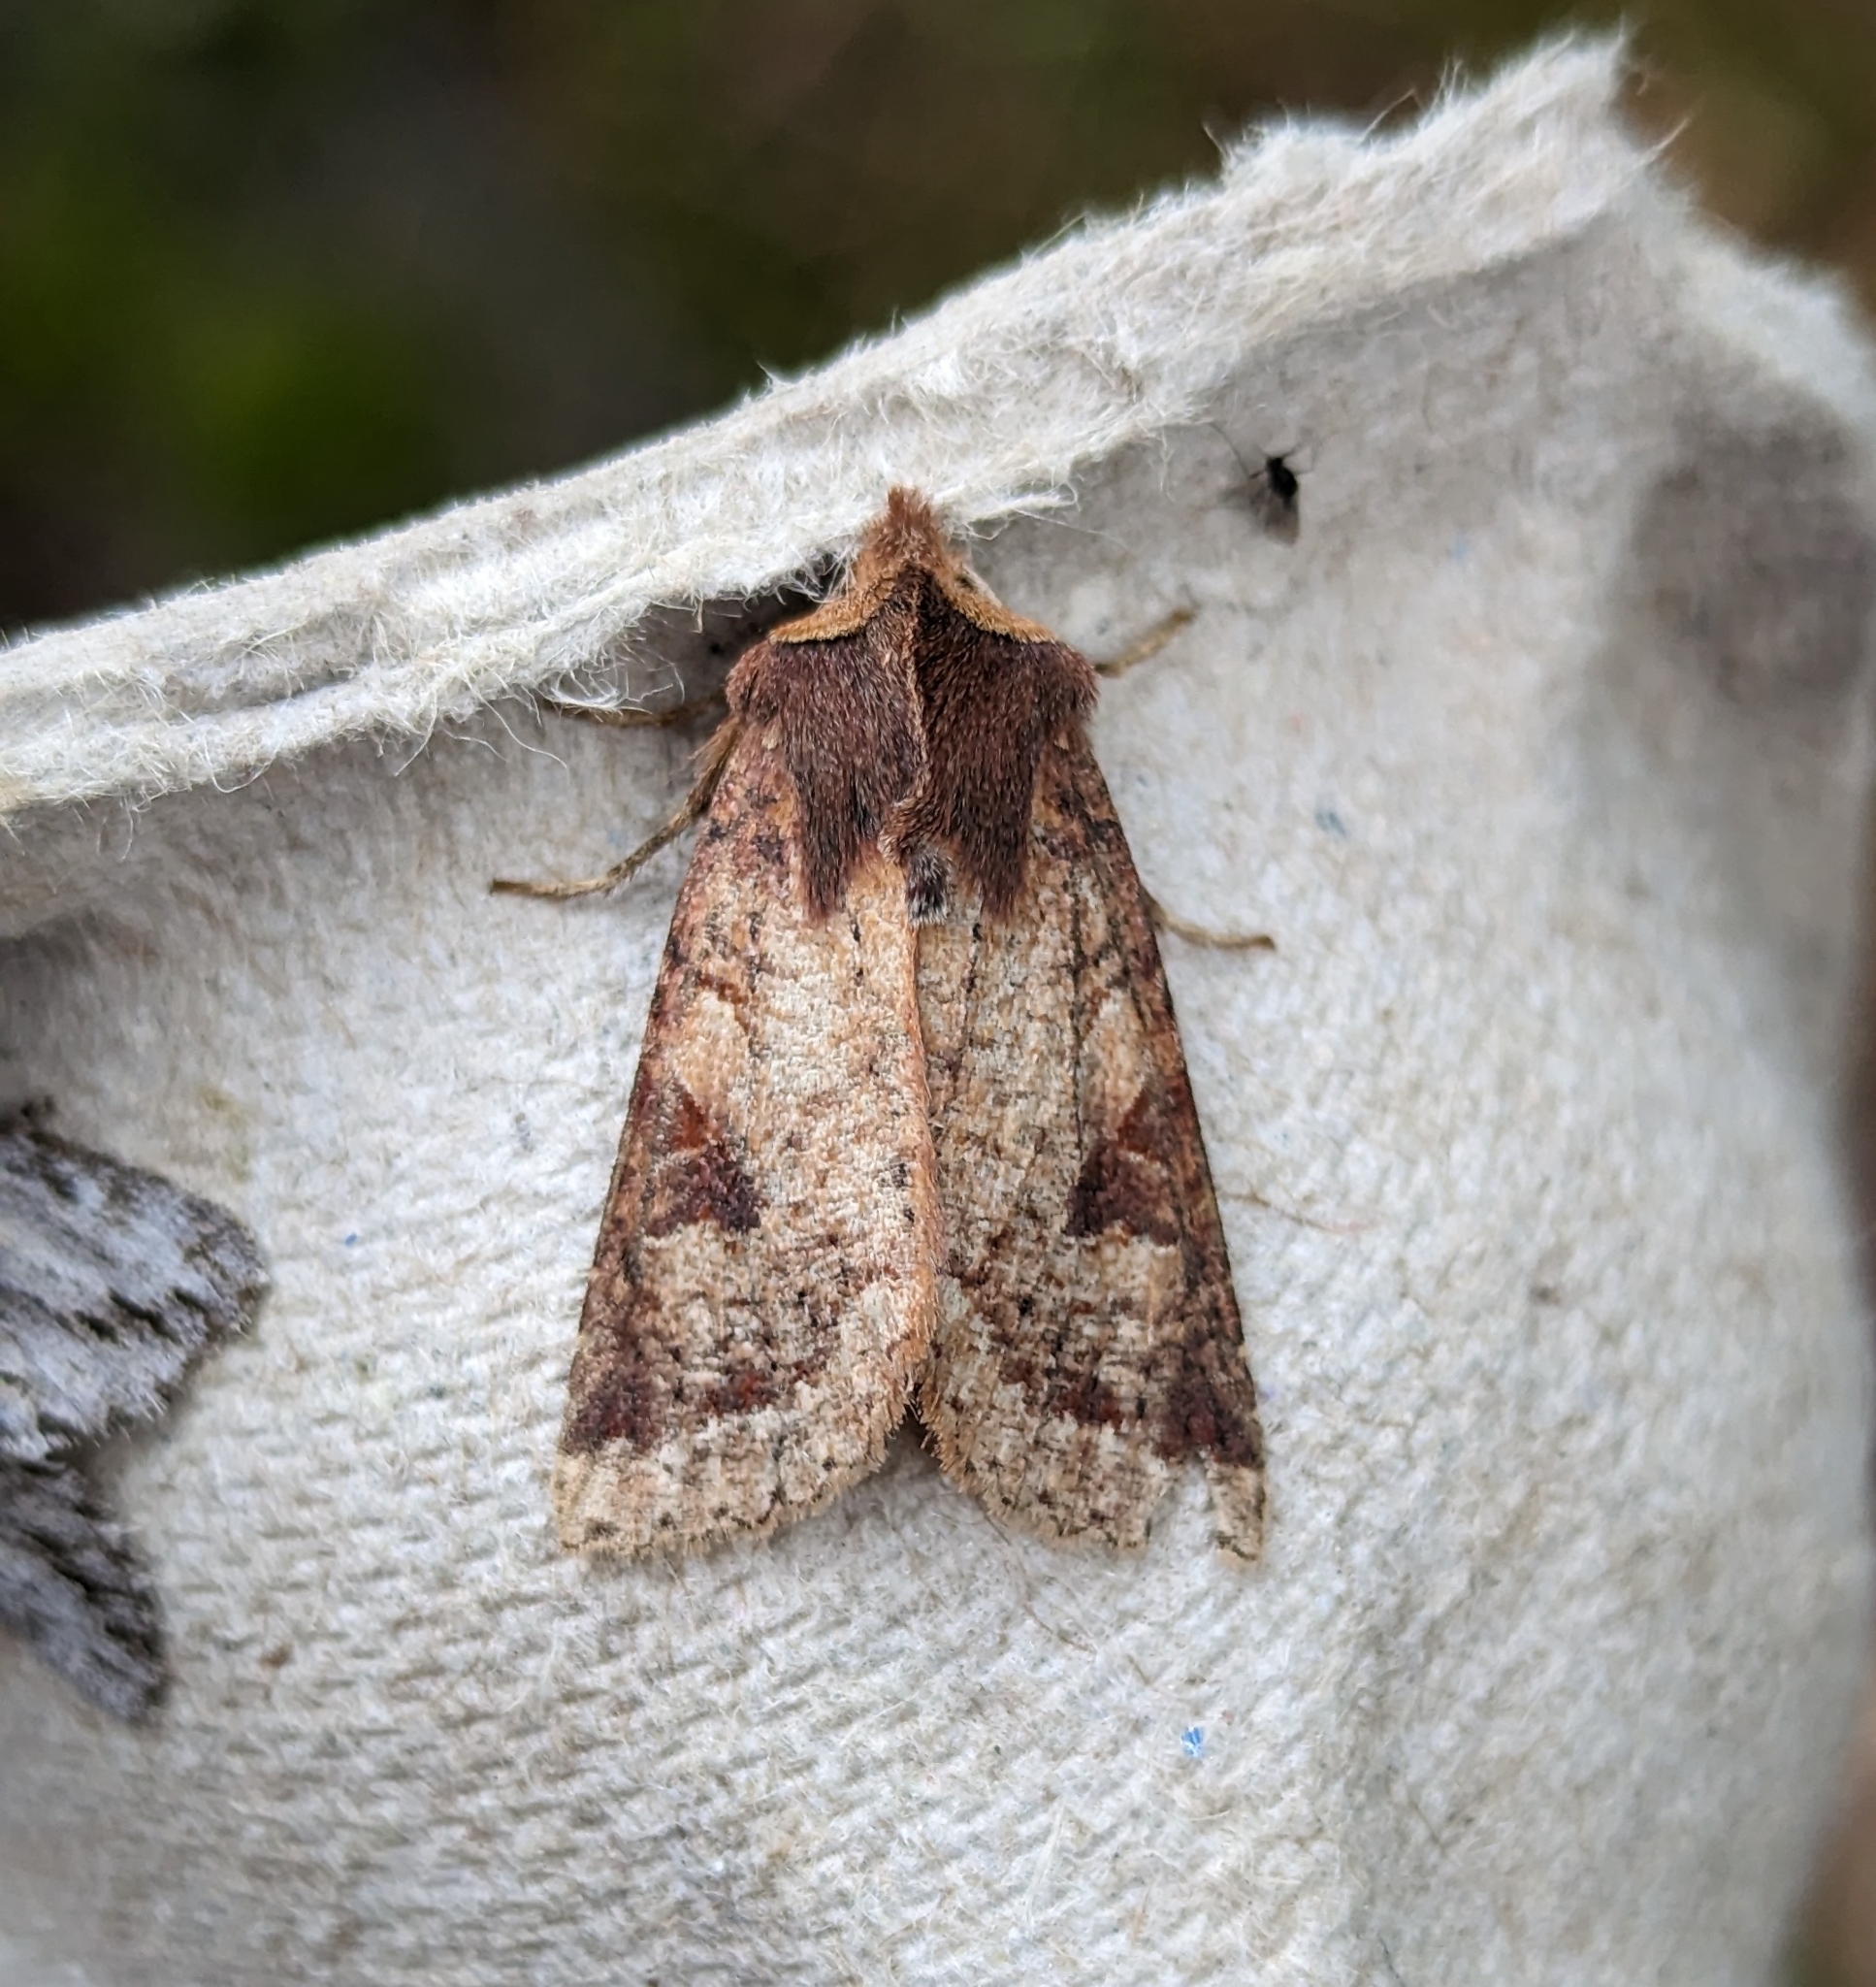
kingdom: Animalia
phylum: Arthropoda
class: Insecta
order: Lepidoptera
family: Noctuidae
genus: Orthosia
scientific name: Orthosia praeses
